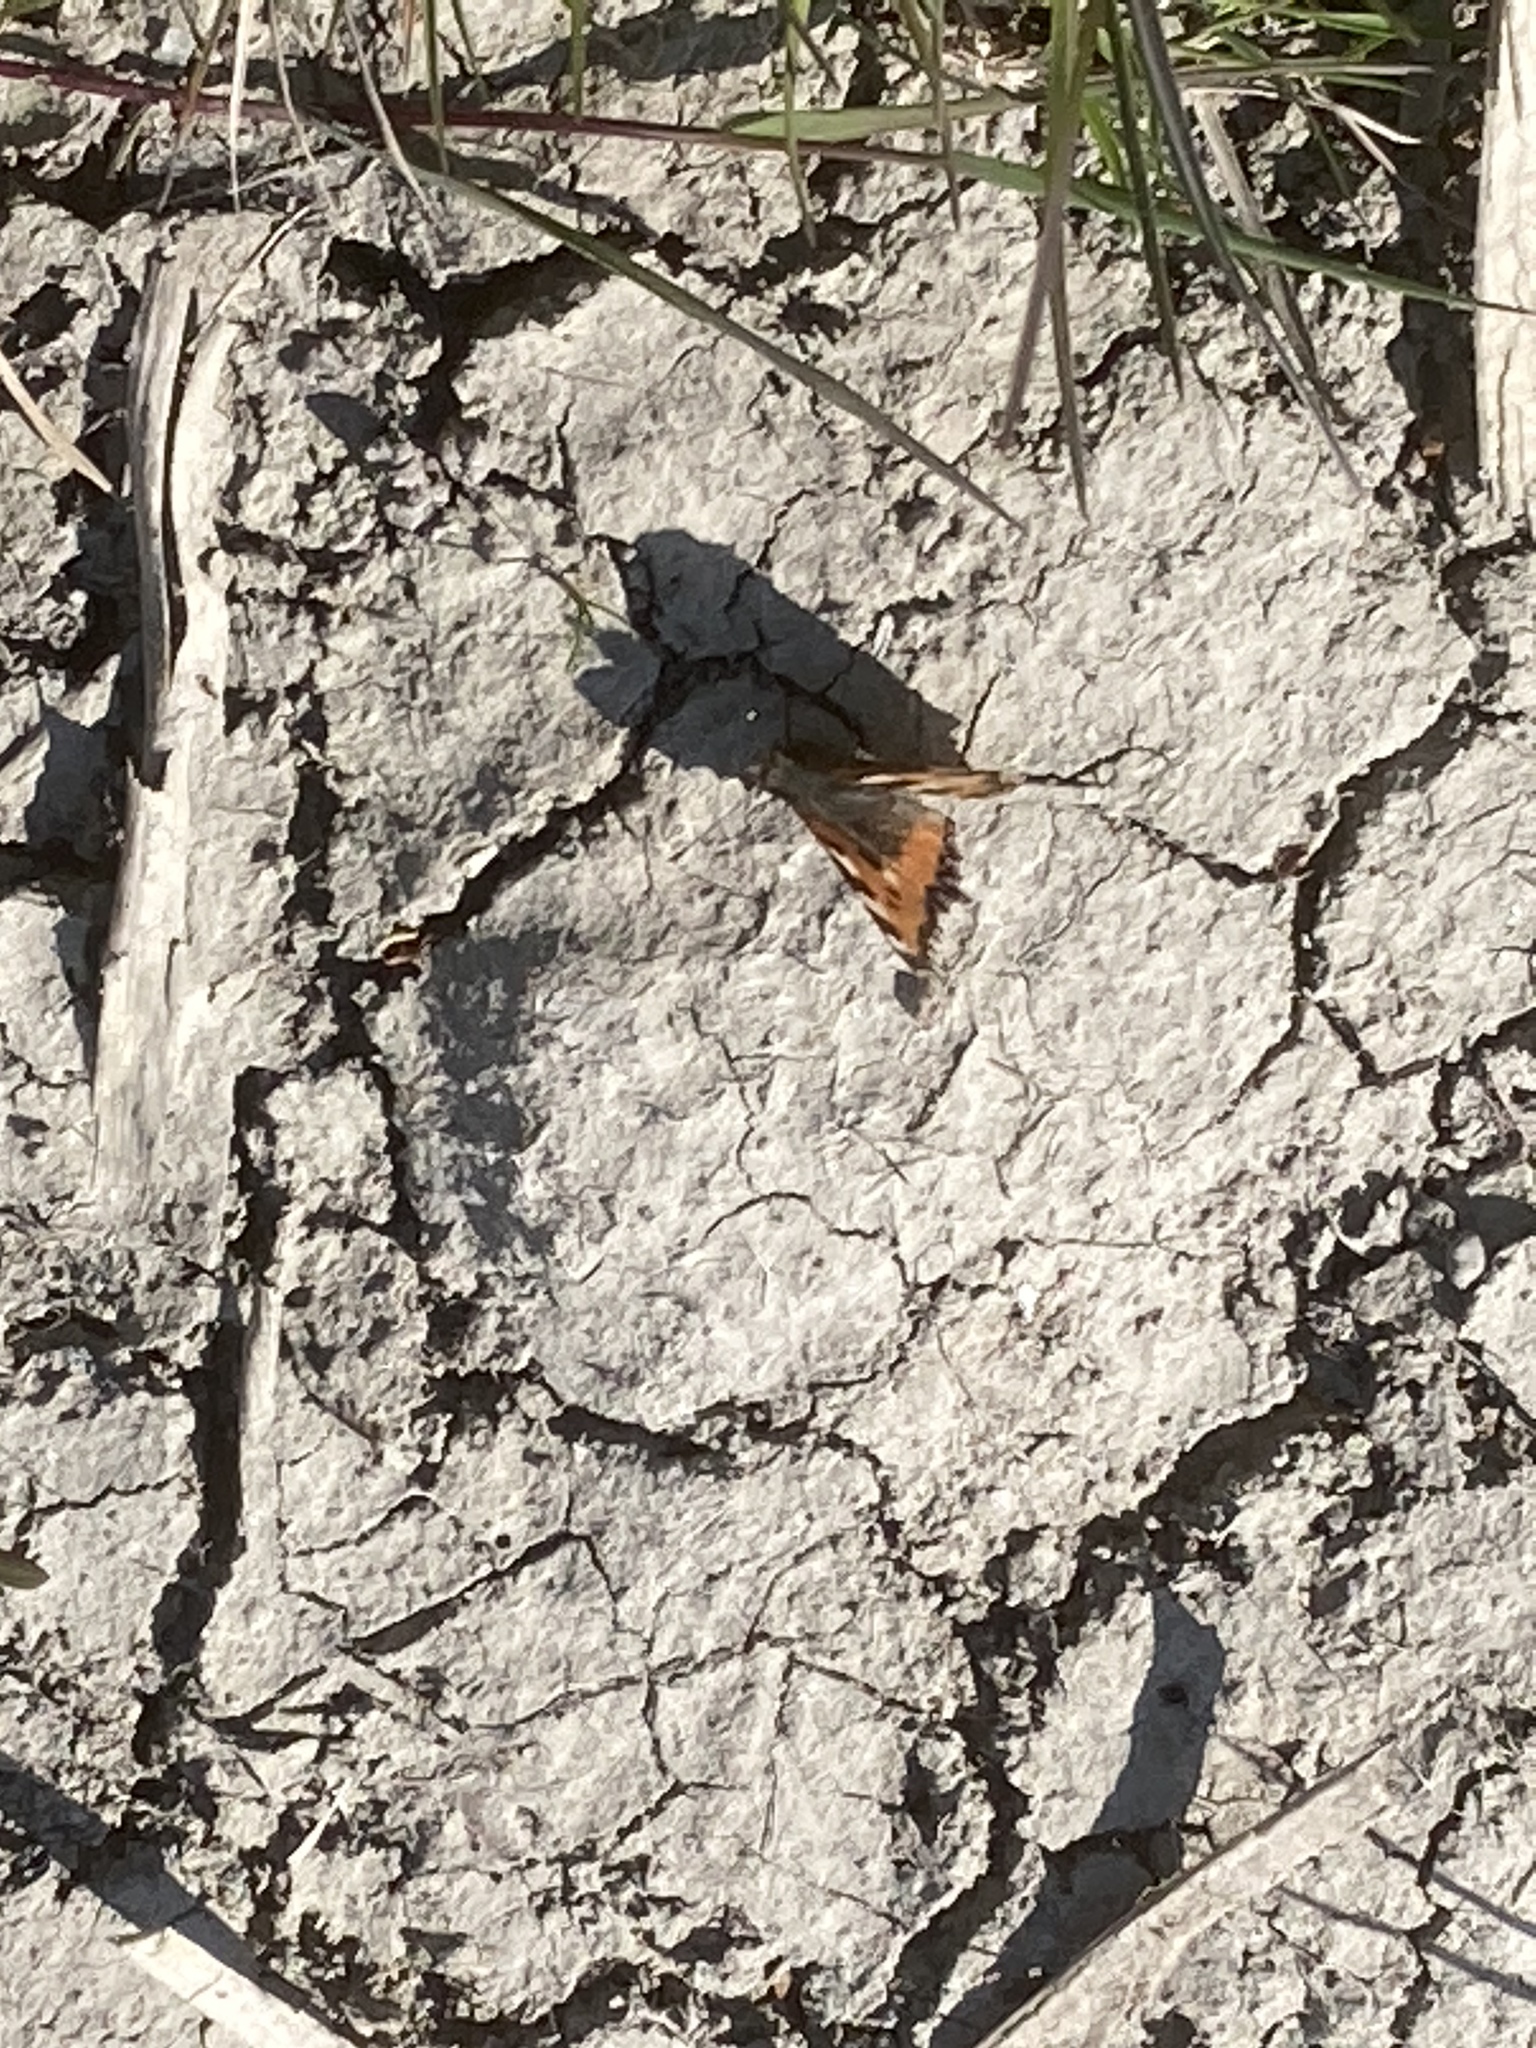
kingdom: Animalia
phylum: Arthropoda
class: Insecta
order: Lepidoptera
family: Nymphalidae
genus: Aglais
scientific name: Aglais urticae
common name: Small tortoiseshell
